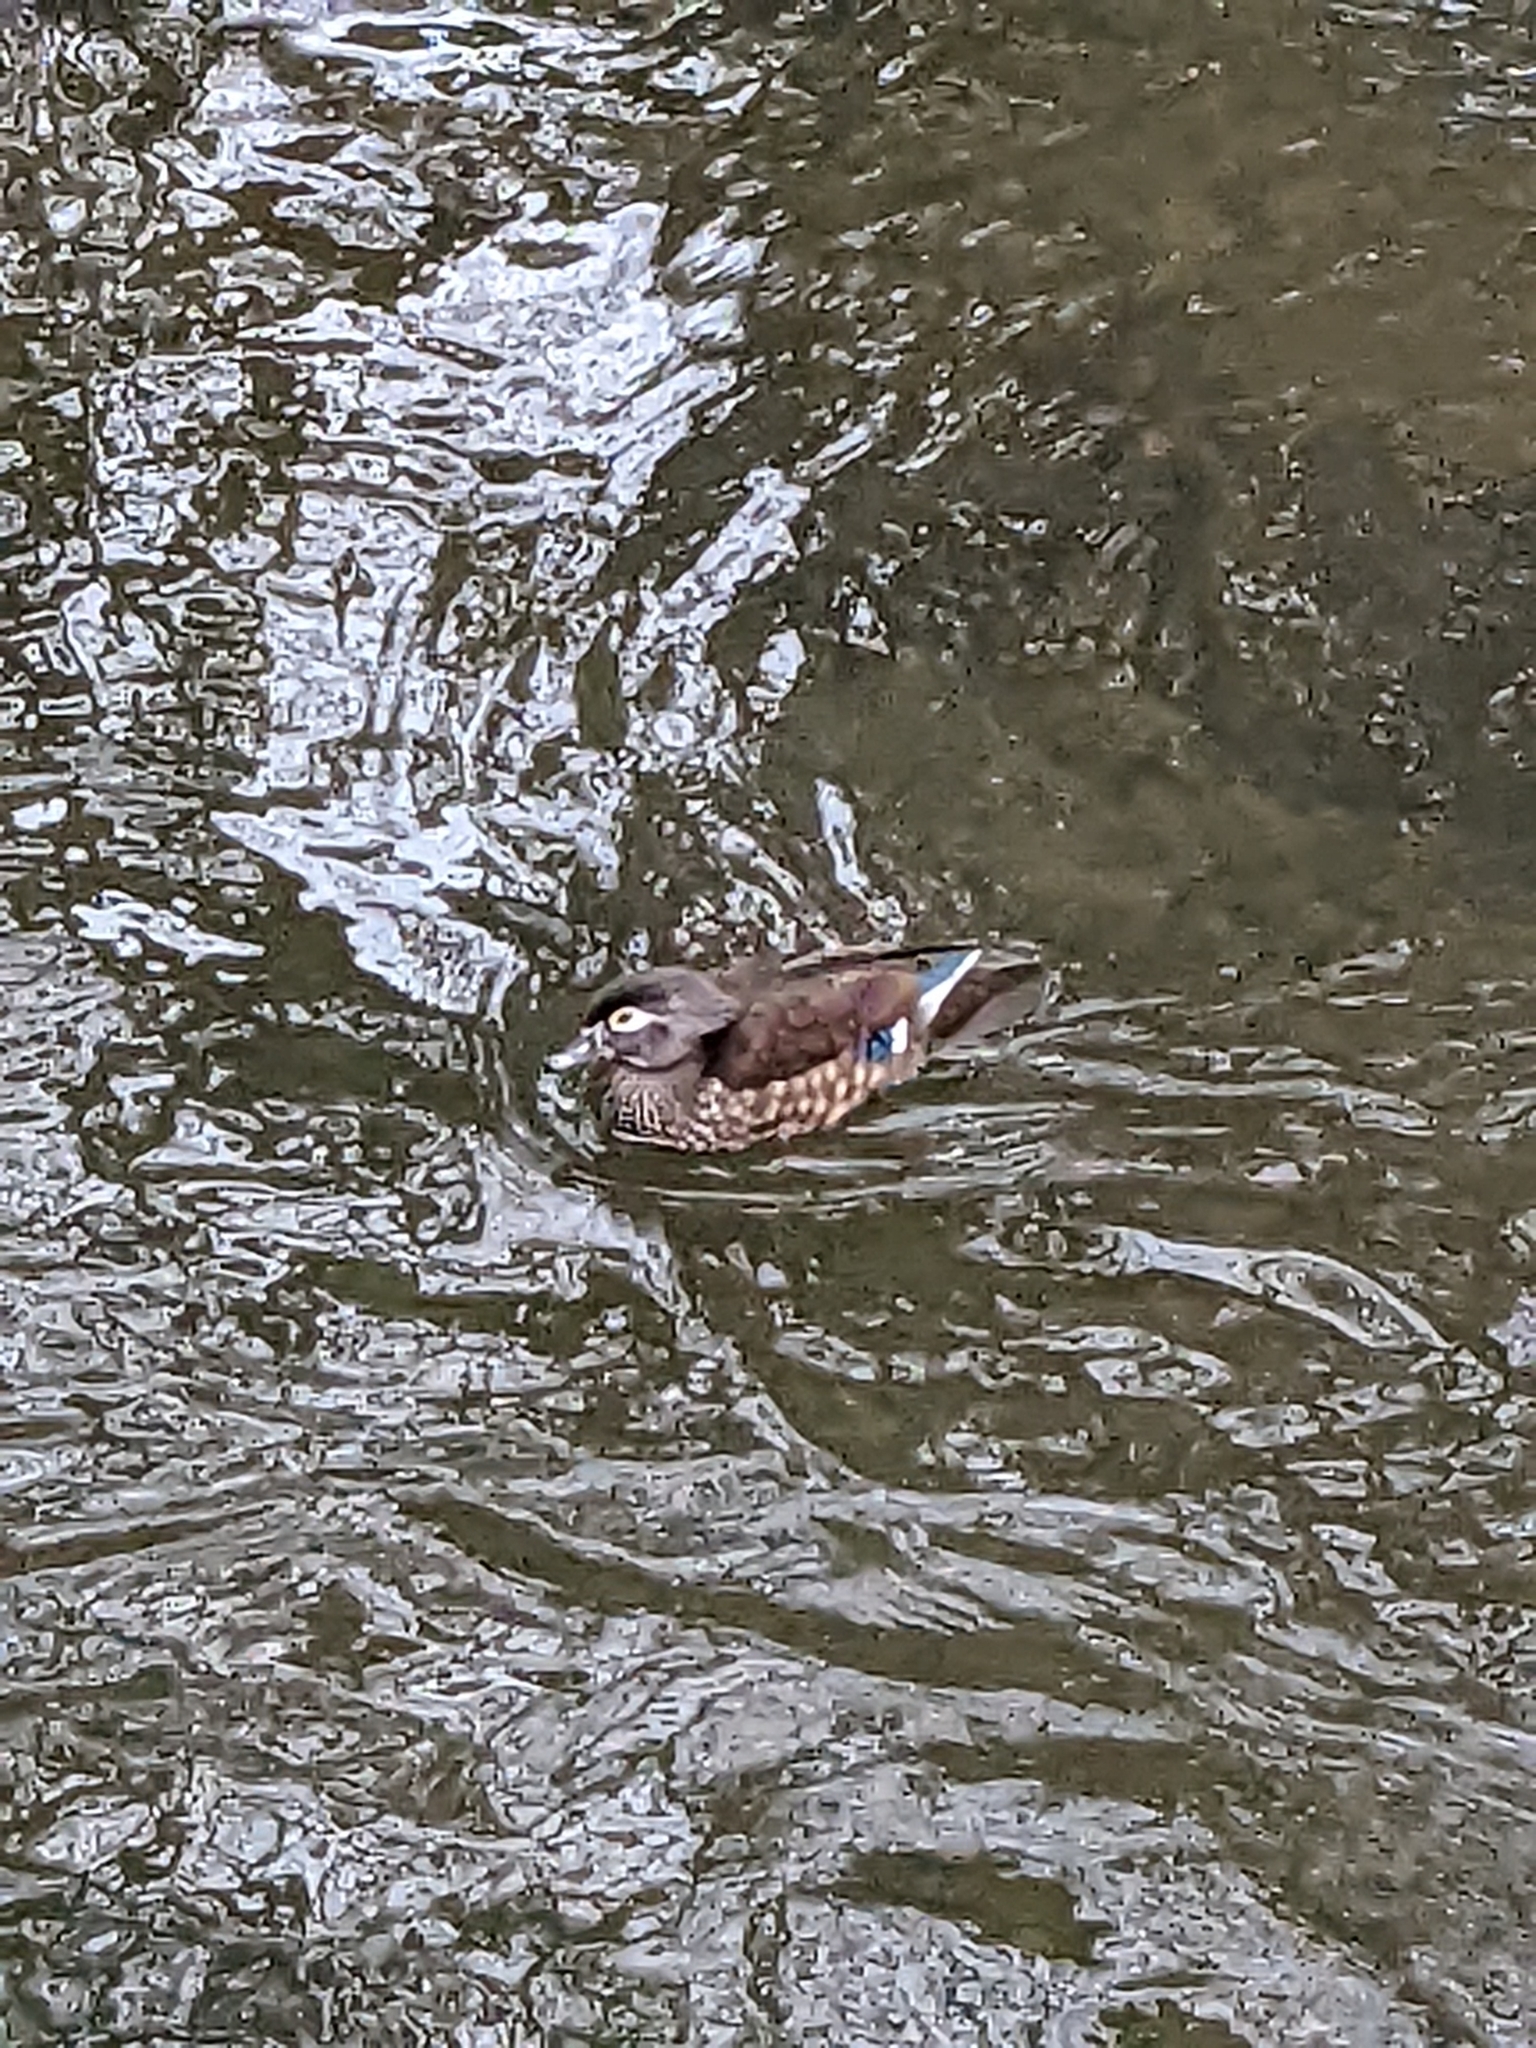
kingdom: Animalia
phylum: Chordata
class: Aves
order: Anseriformes
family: Anatidae
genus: Aix
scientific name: Aix sponsa
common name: Wood duck
